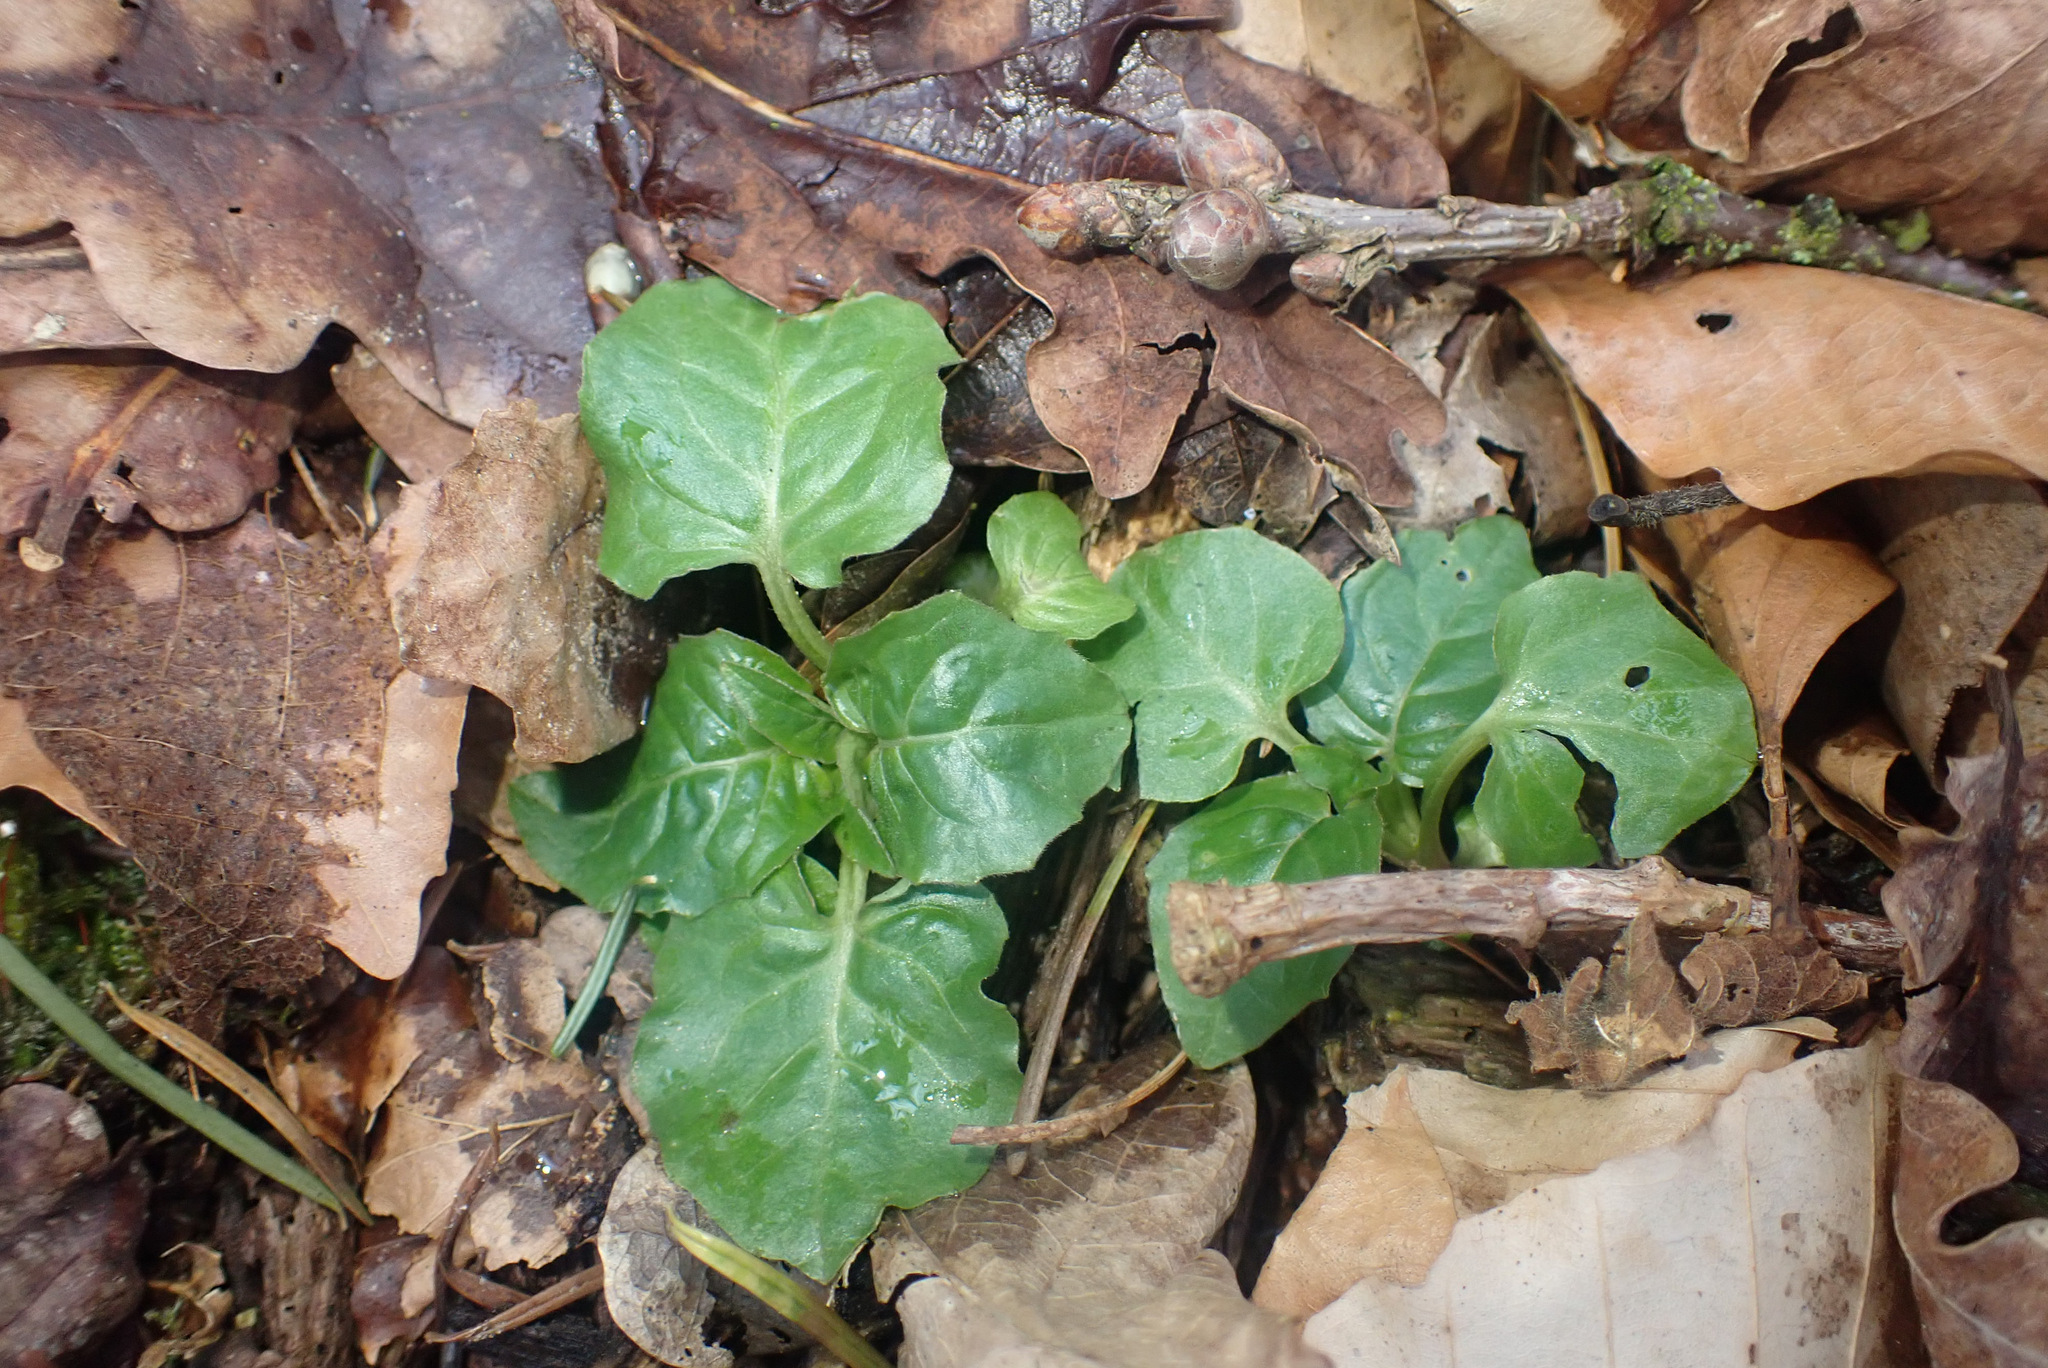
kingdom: Plantae
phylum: Tracheophyta
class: Magnoliopsida
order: Myrtales
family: Onagraceae
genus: Circaea
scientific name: Circaea lutetiana
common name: Enchanter's-nightshade
